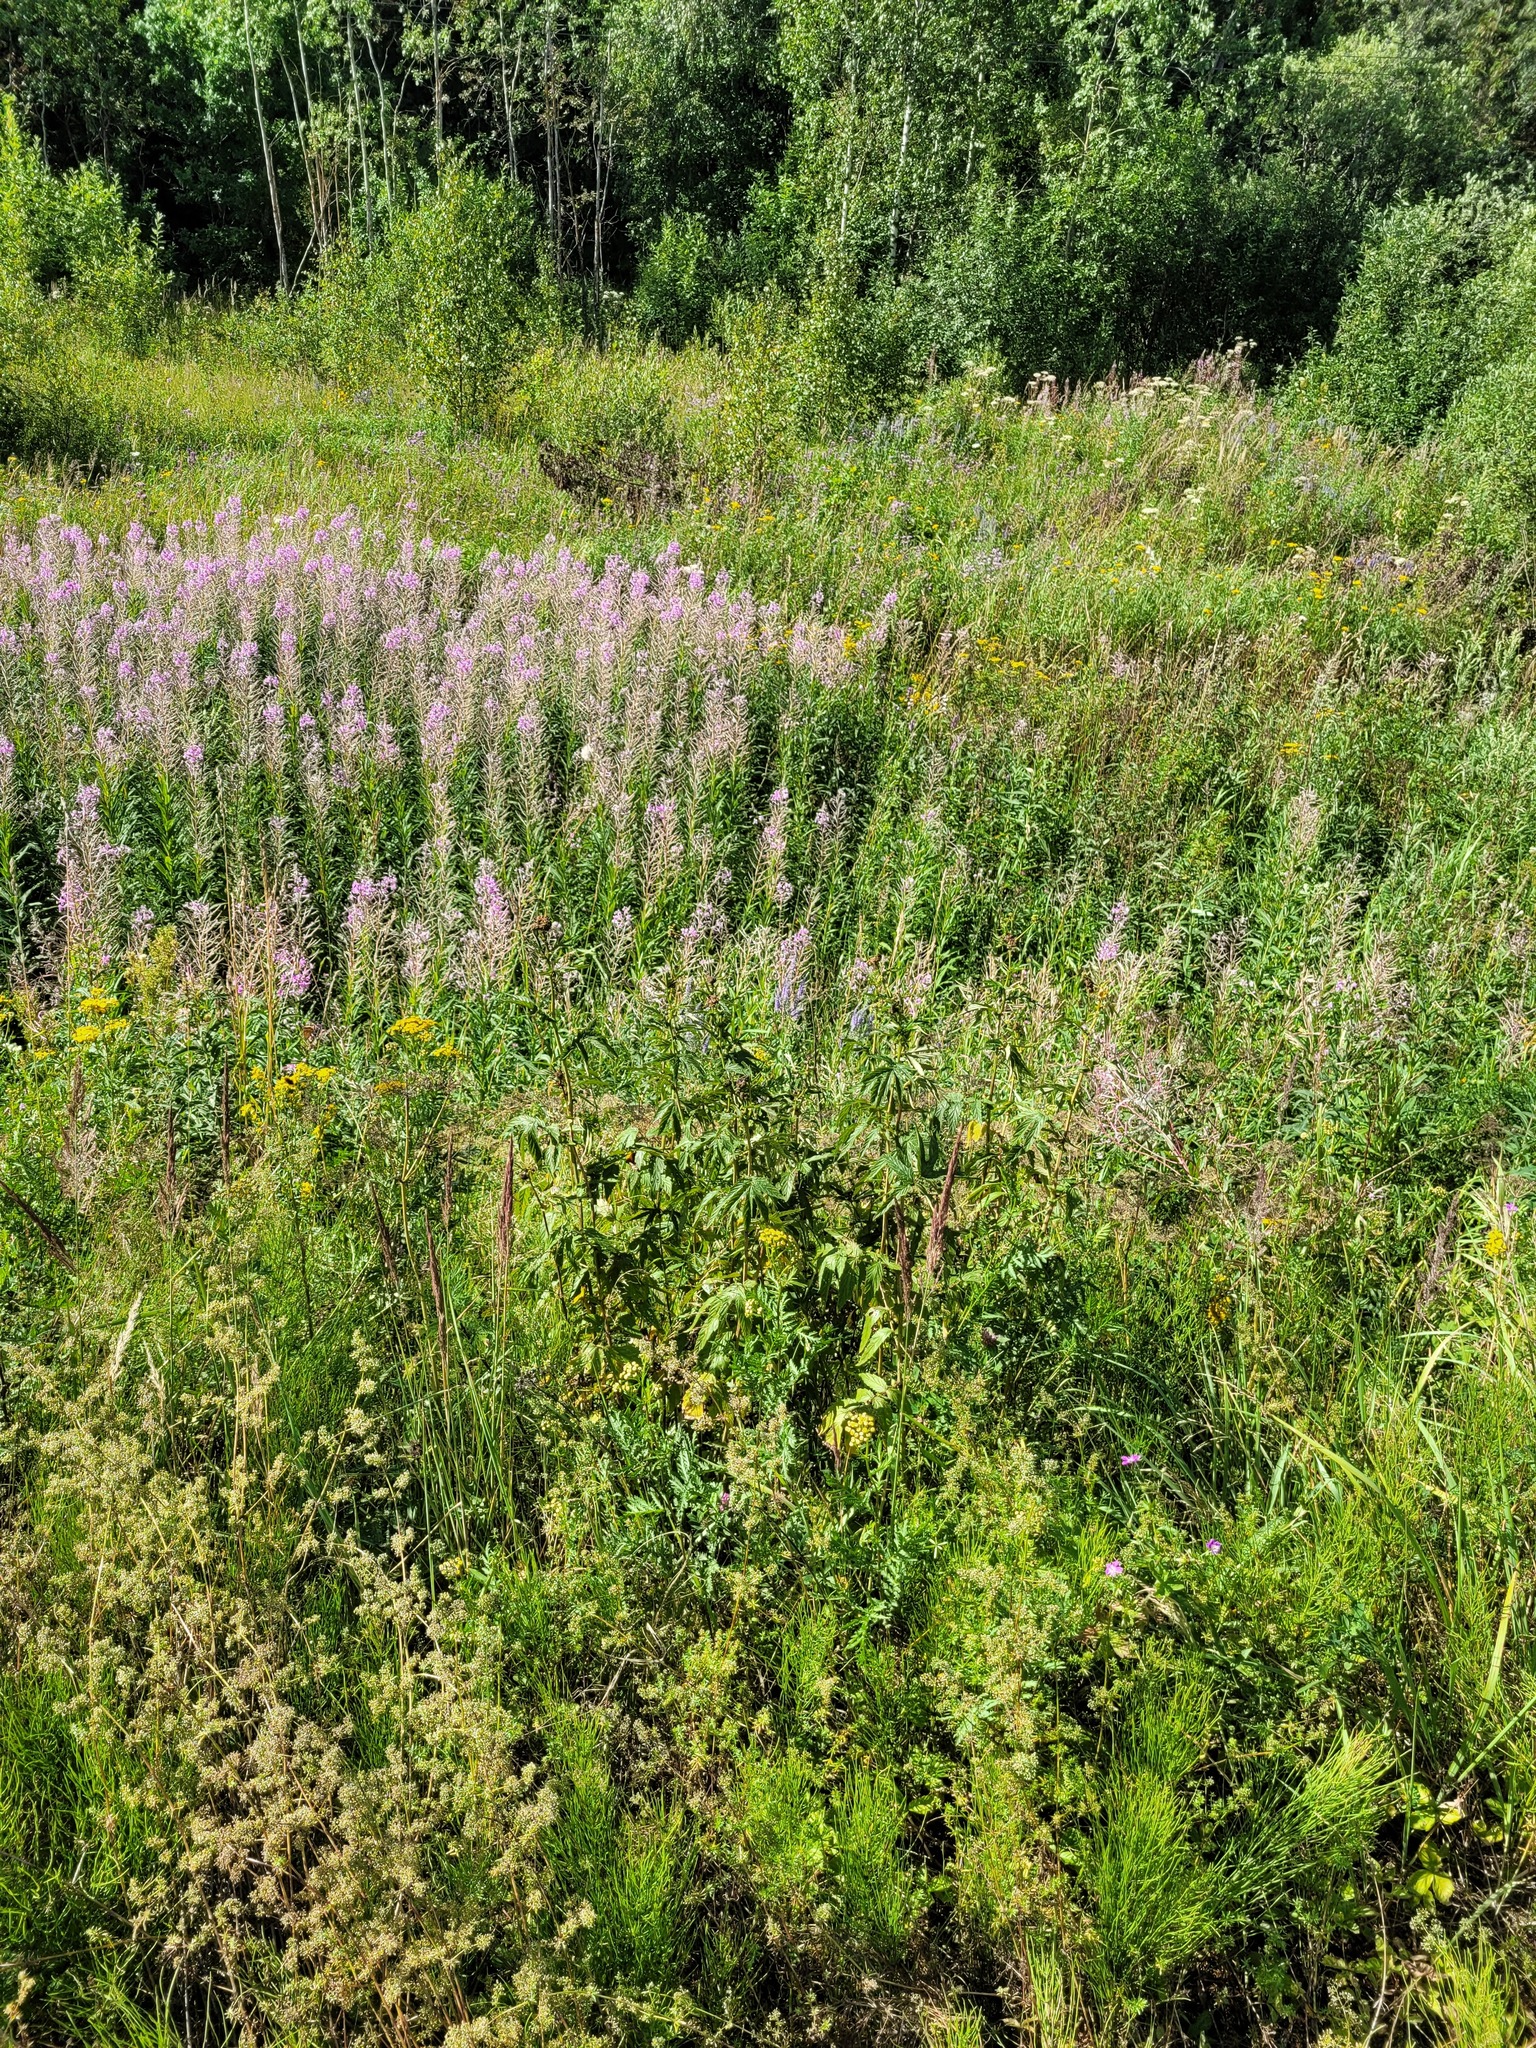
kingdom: Plantae
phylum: Tracheophyta
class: Magnoliopsida
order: Rosales
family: Rosaceae
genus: Filipendula
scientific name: Filipendula ulmaria
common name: Meadowsweet
